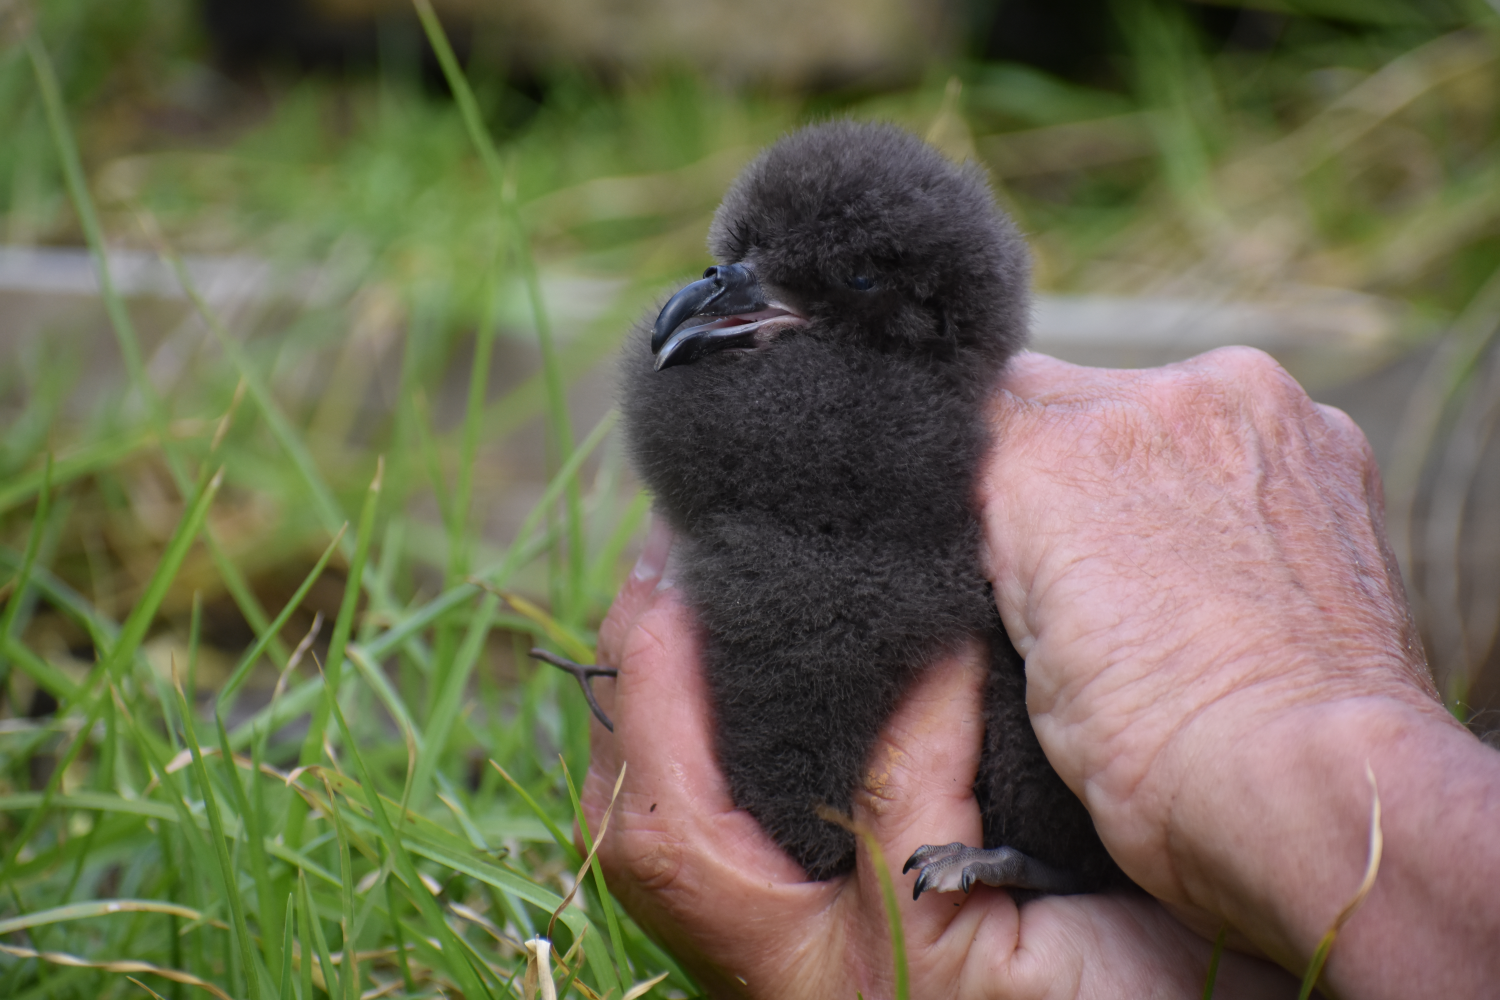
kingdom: Animalia
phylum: Chordata
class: Aves
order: Procellariiformes
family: Procellariidae
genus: Pterodroma
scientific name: Pterodroma macroptera
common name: Great-winged petrel
